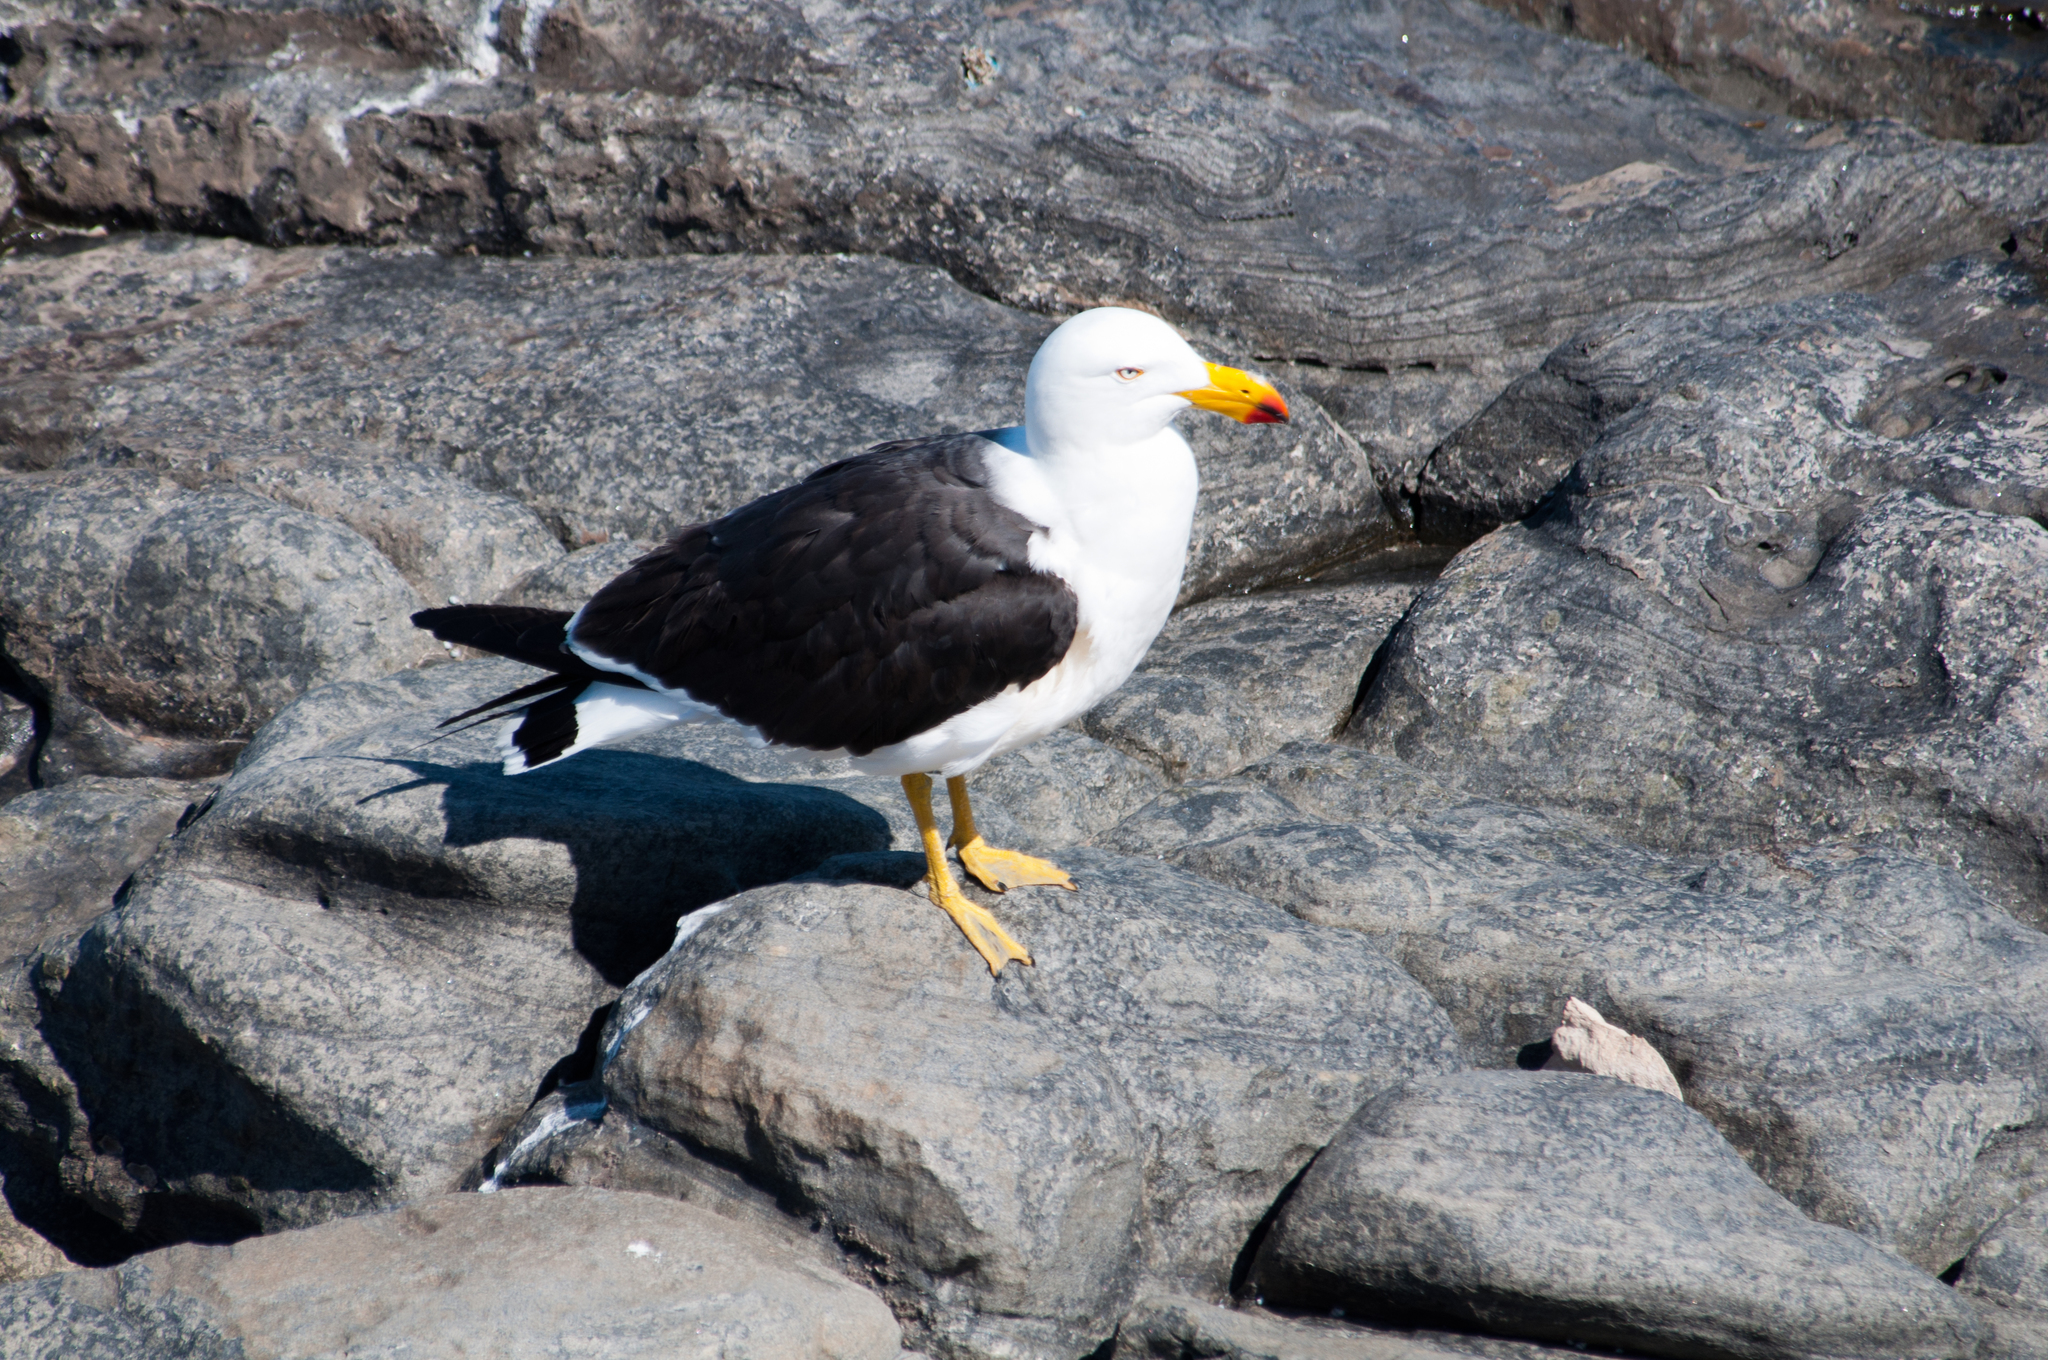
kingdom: Animalia
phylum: Chordata
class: Aves
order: Charadriiformes
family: Laridae
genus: Larus
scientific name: Larus pacificus
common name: Pacific gull
